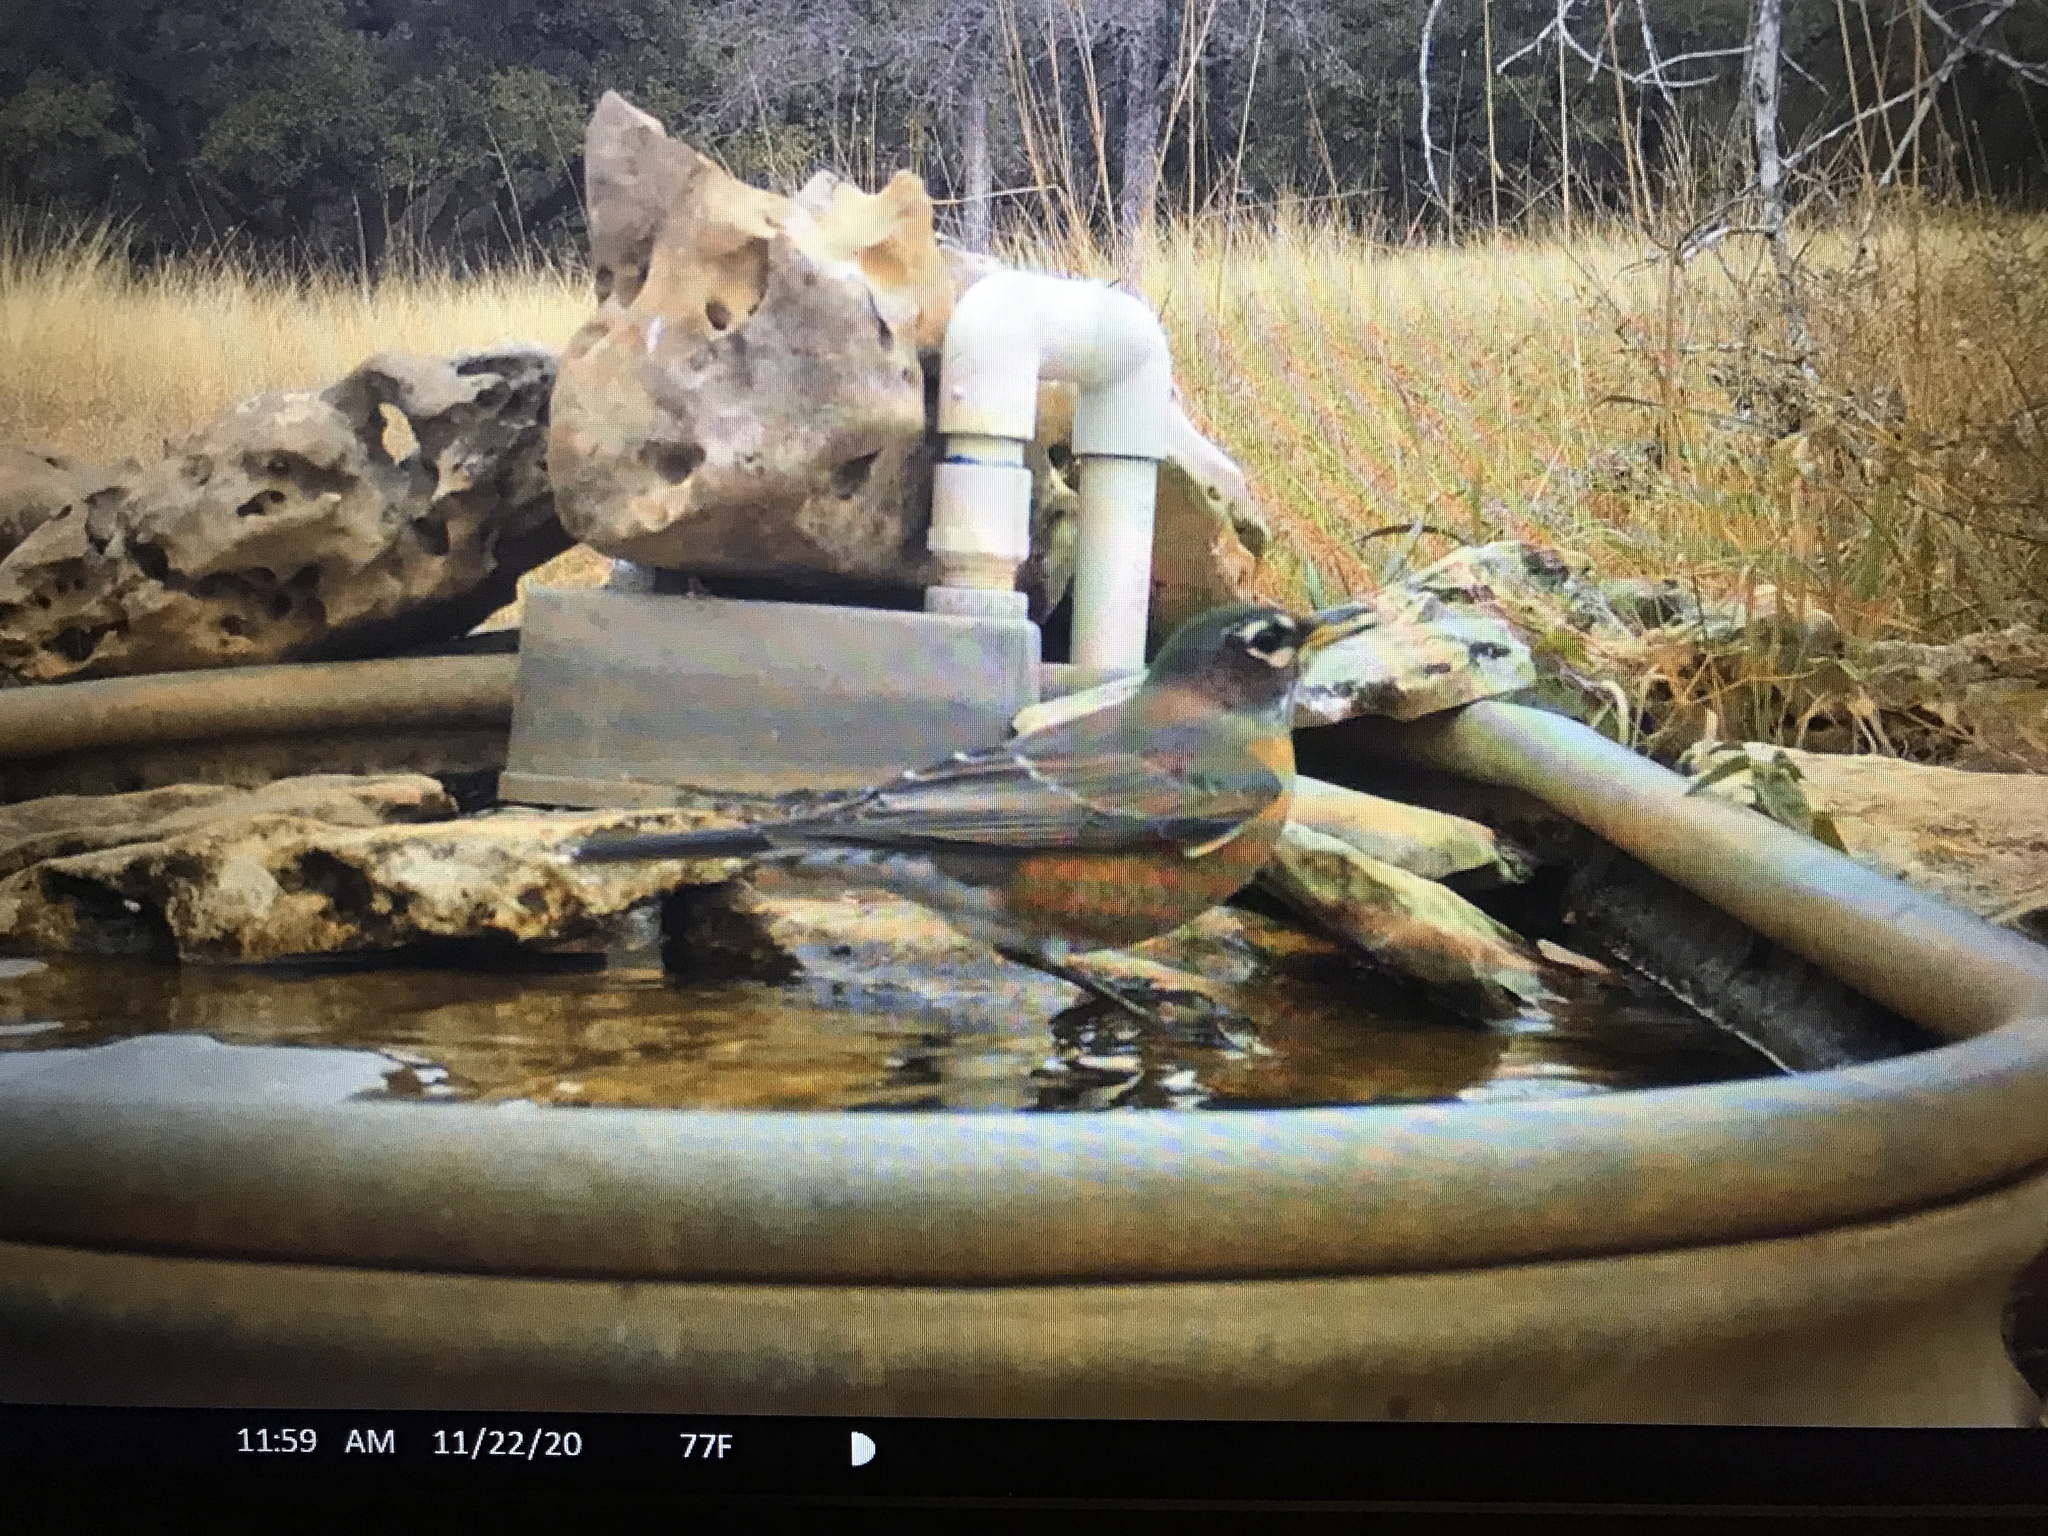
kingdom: Animalia
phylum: Chordata
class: Aves
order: Passeriformes
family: Turdidae
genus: Turdus
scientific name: Turdus migratorius
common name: American robin
